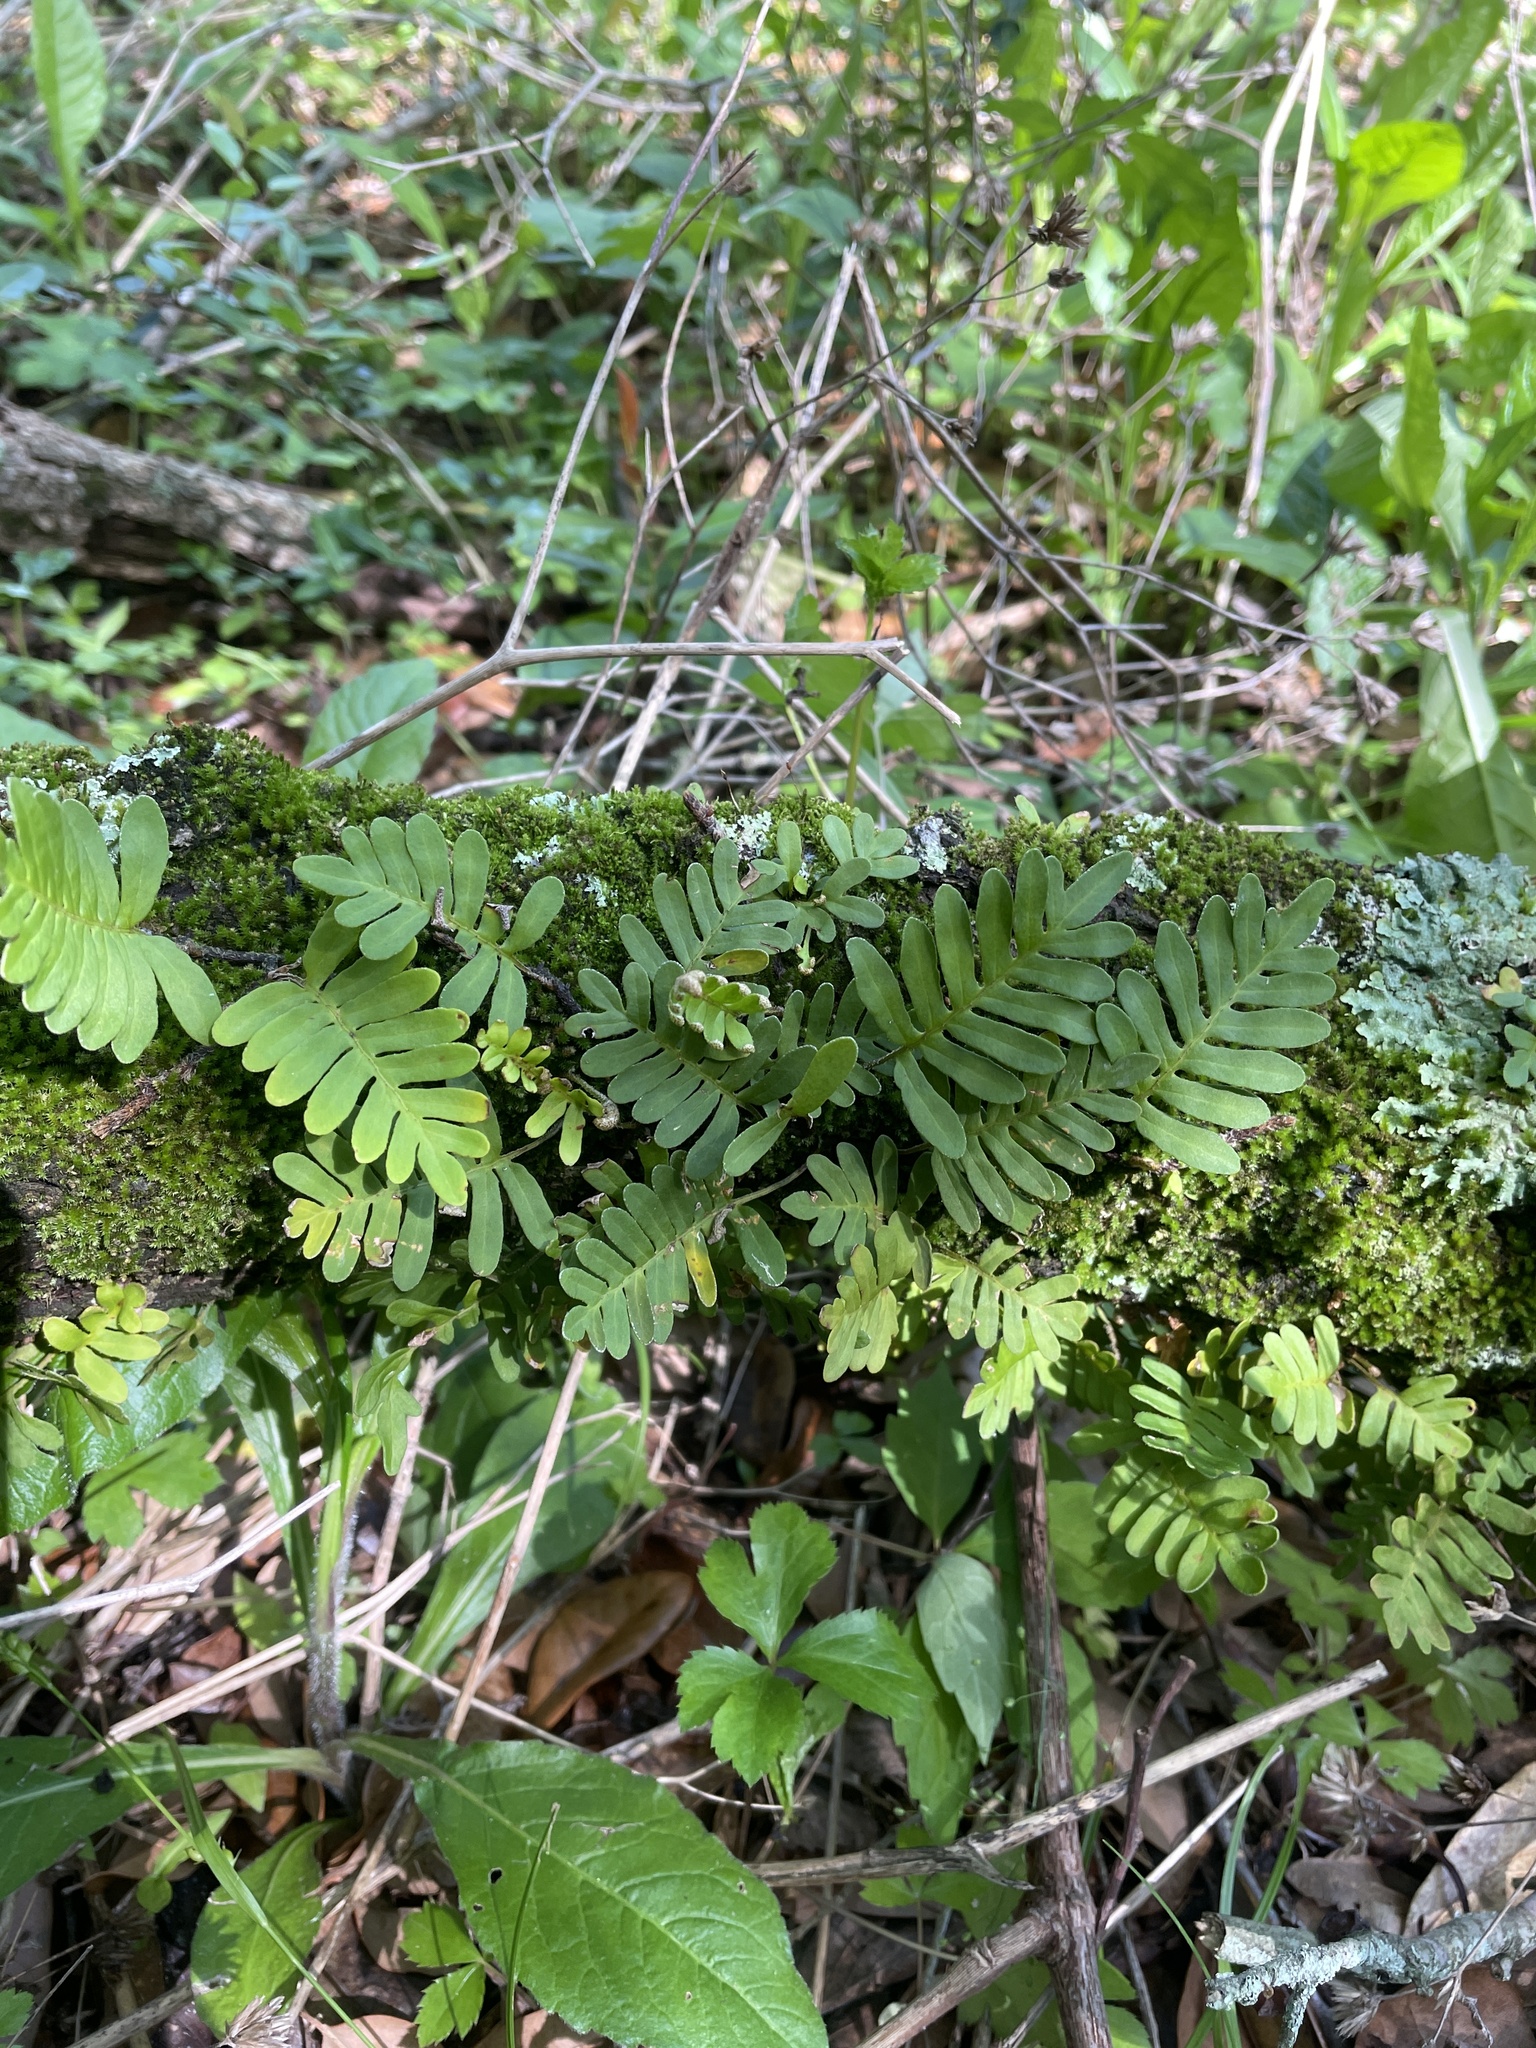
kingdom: Plantae
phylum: Tracheophyta
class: Polypodiopsida
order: Polypodiales
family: Polypodiaceae
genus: Pleopeltis
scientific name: Pleopeltis michauxiana
